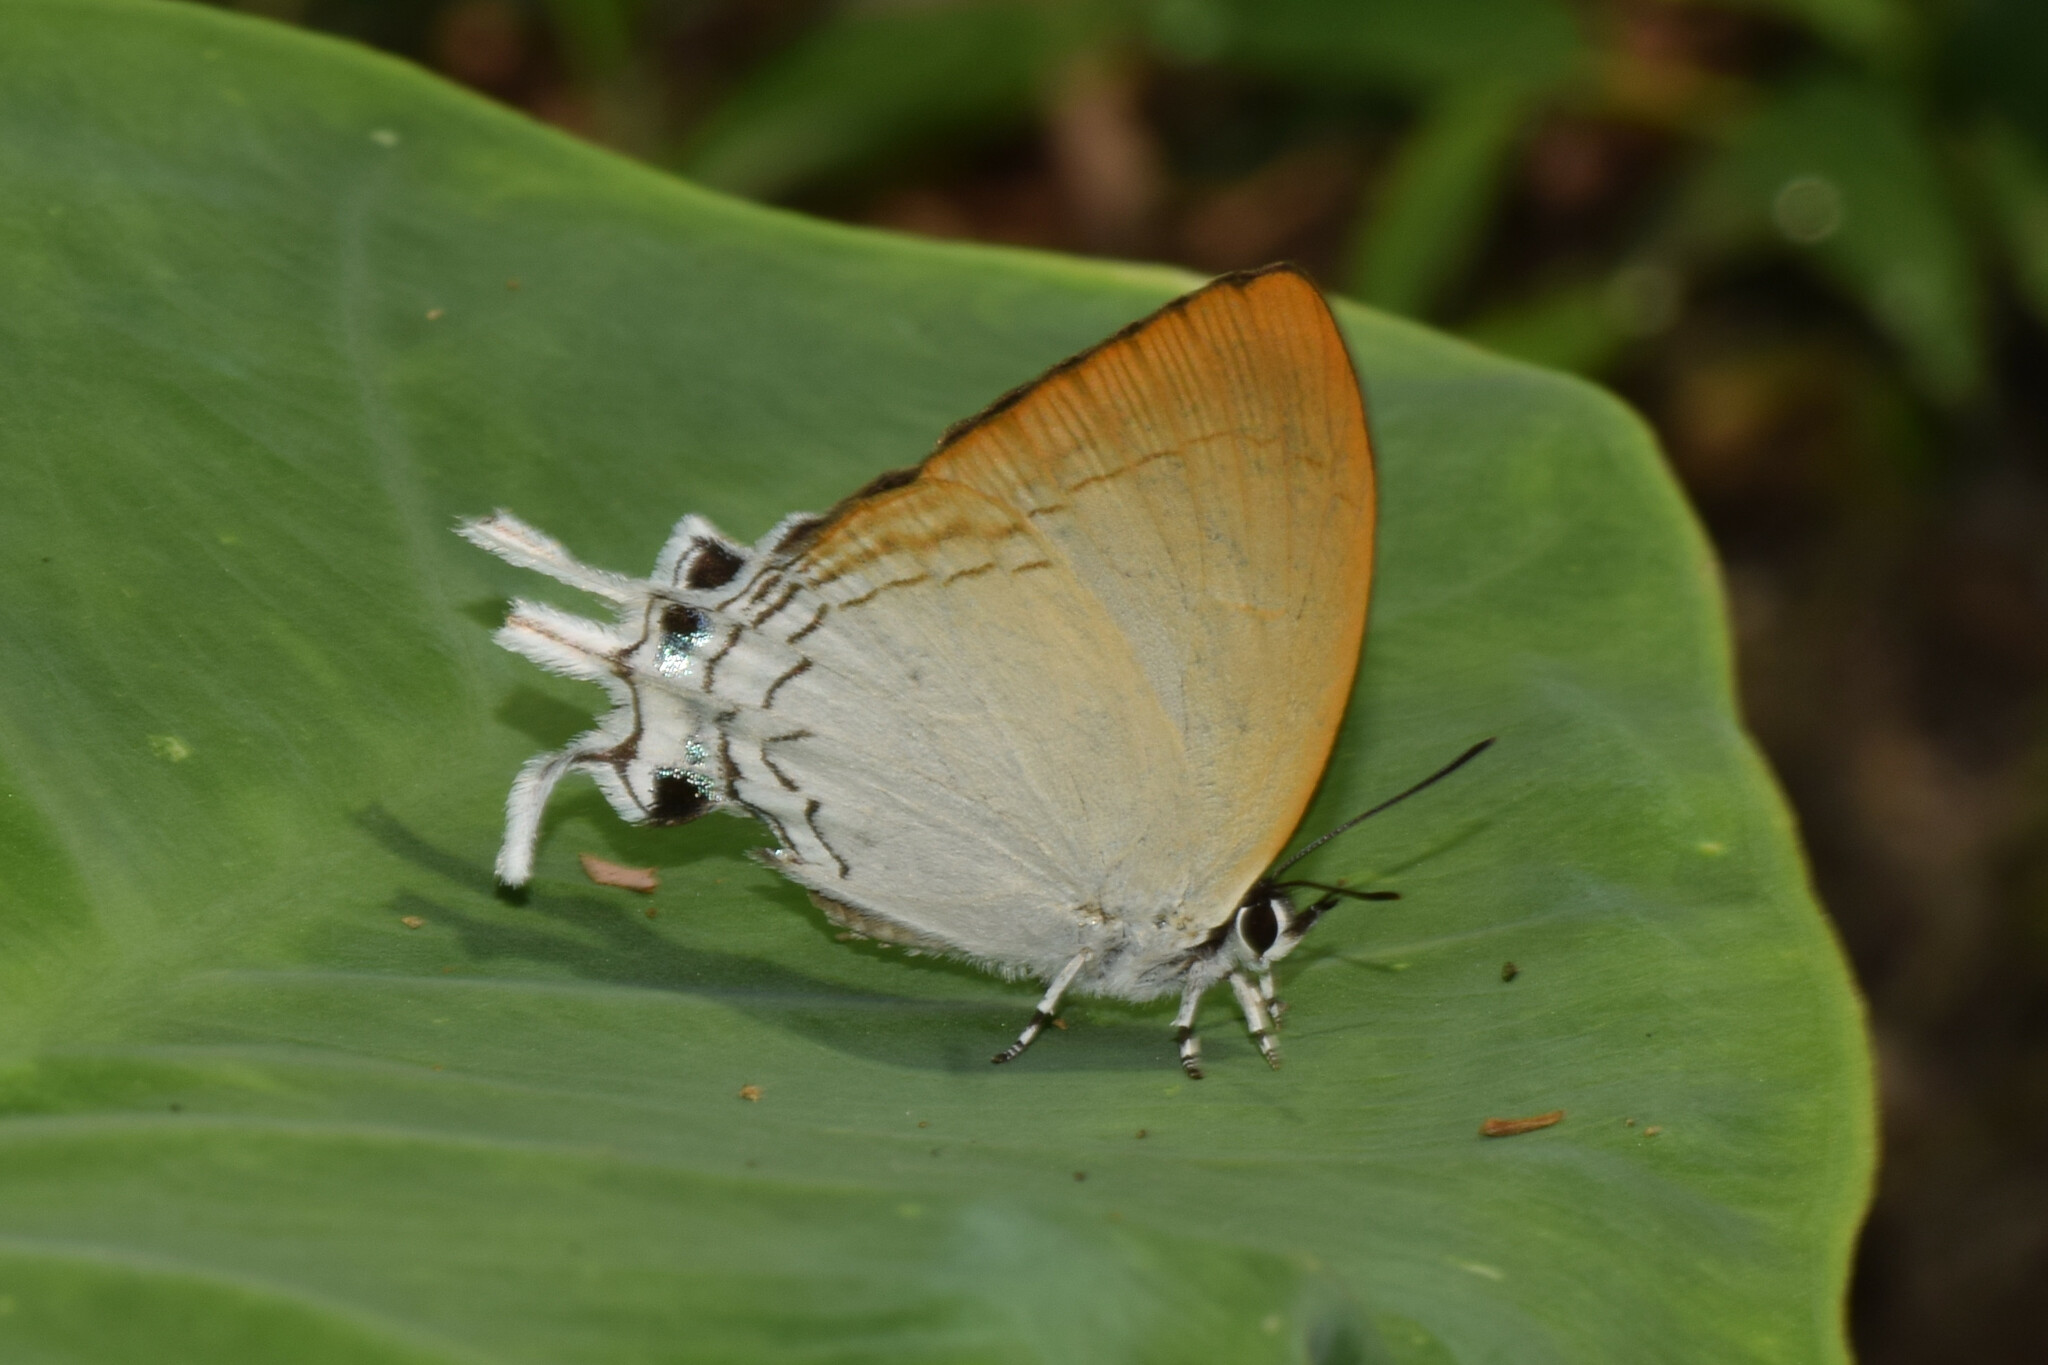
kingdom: Animalia
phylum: Arthropoda
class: Insecta
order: Lepidoptera
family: Lycaenidae
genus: Cheritra
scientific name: Cheritra freja
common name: Common imperial
